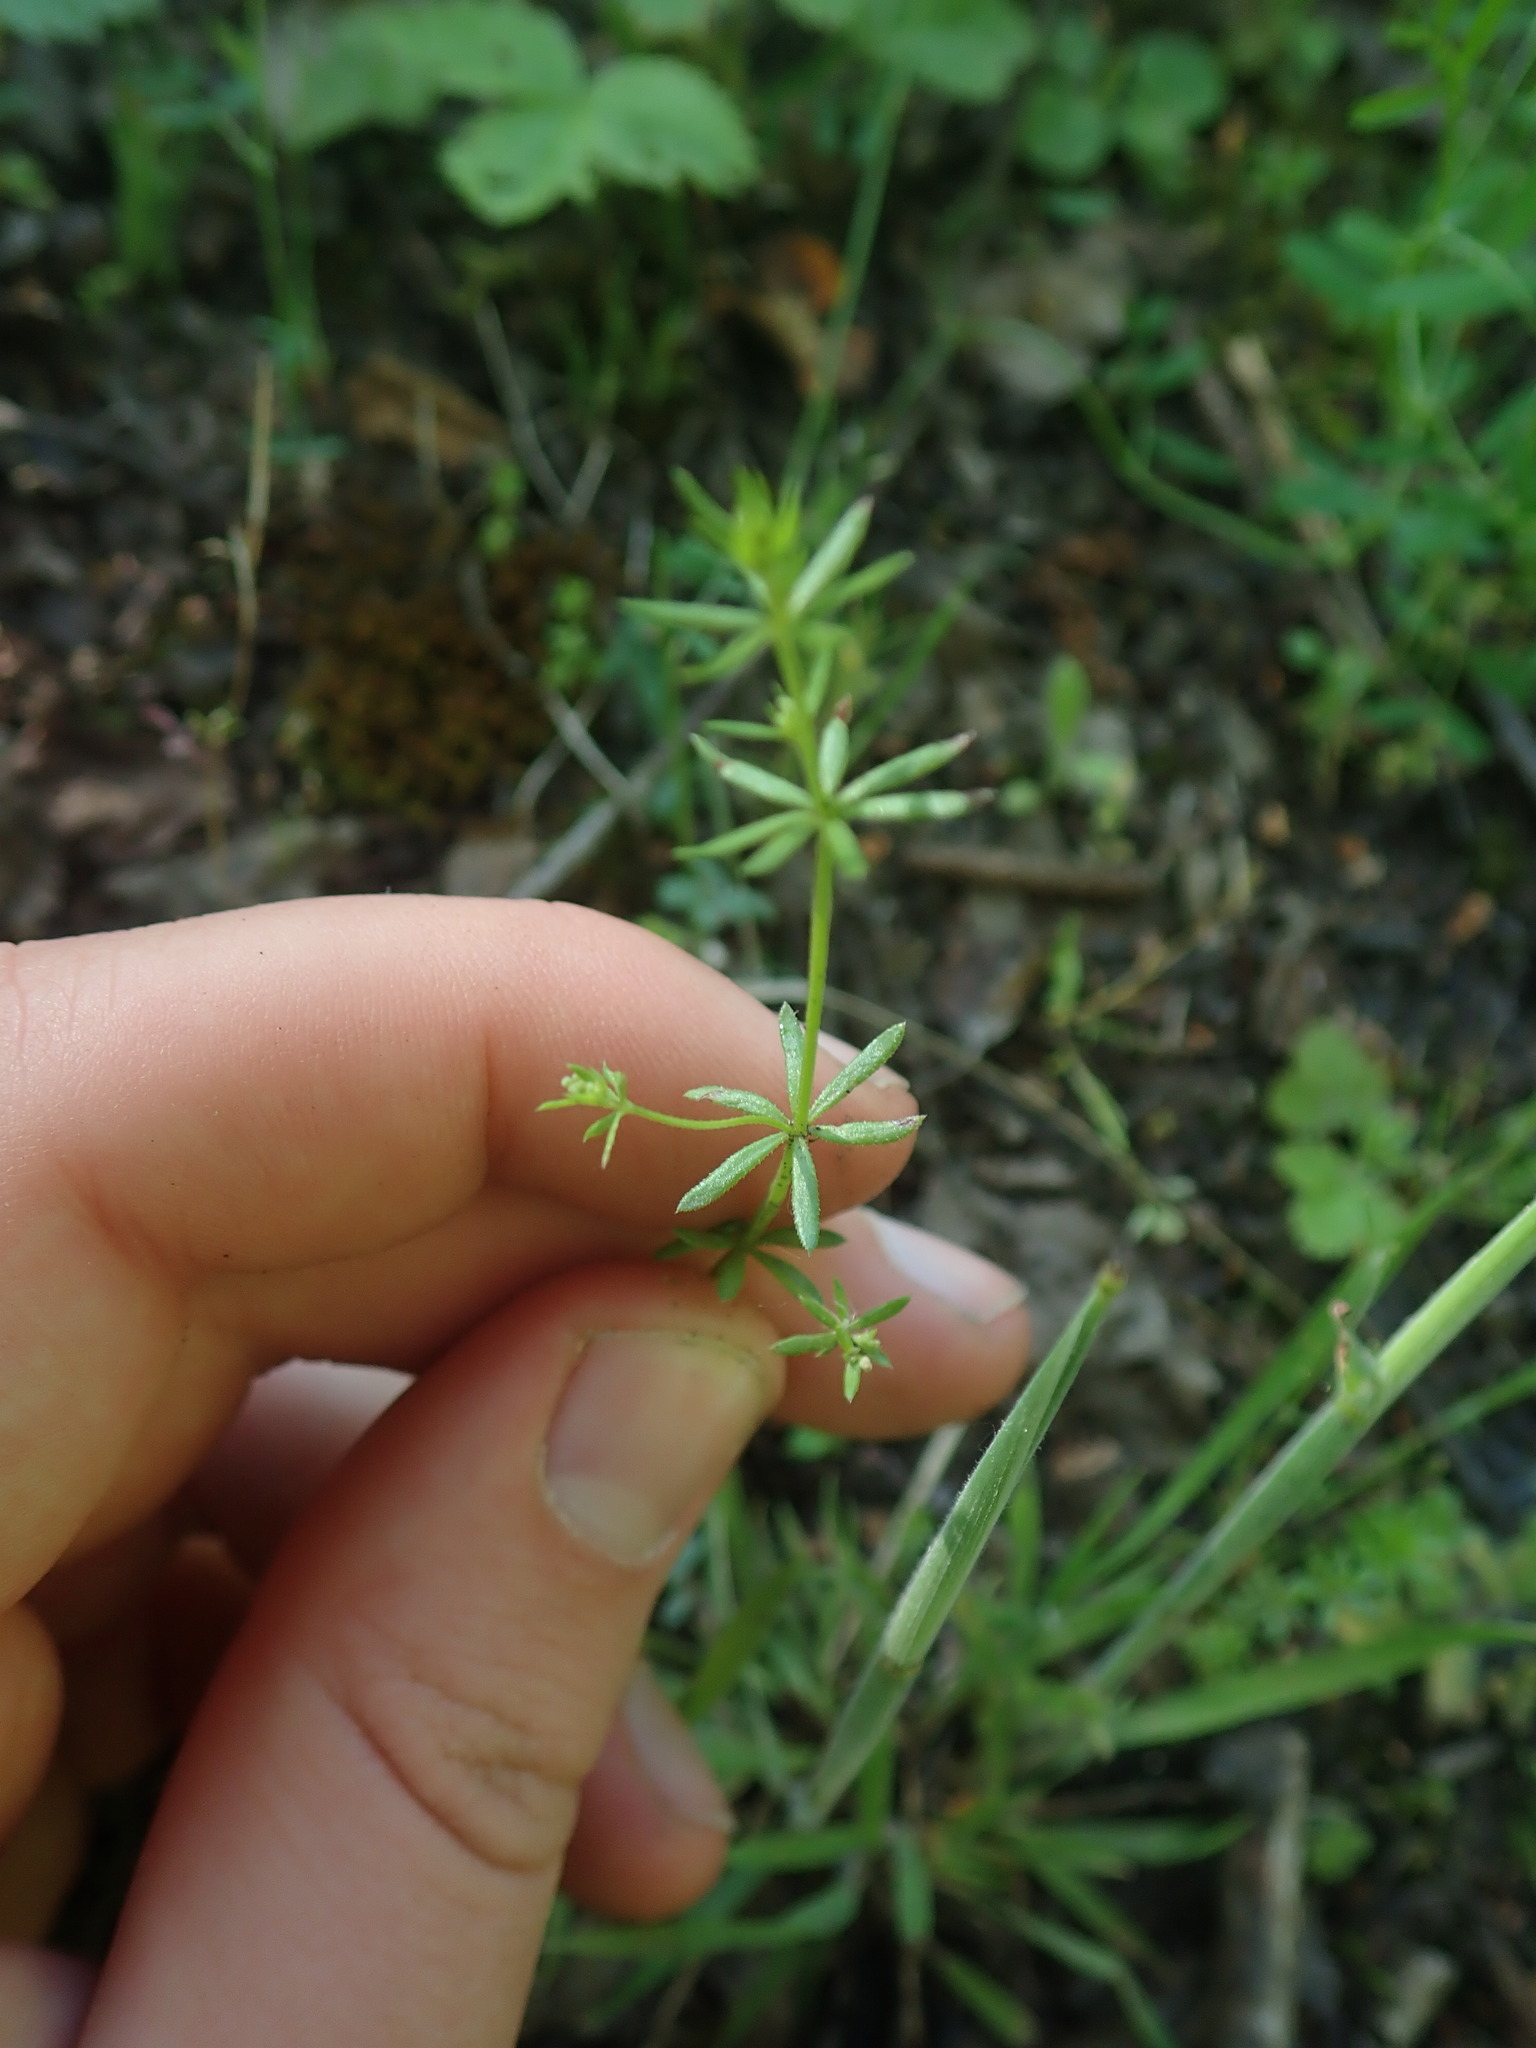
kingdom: Plantae
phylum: Tracheophyta
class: Magnoliopsida
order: Gentianales
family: Rubiaceae
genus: Galium
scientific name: Galium parisiense
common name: Wall bedstraw
